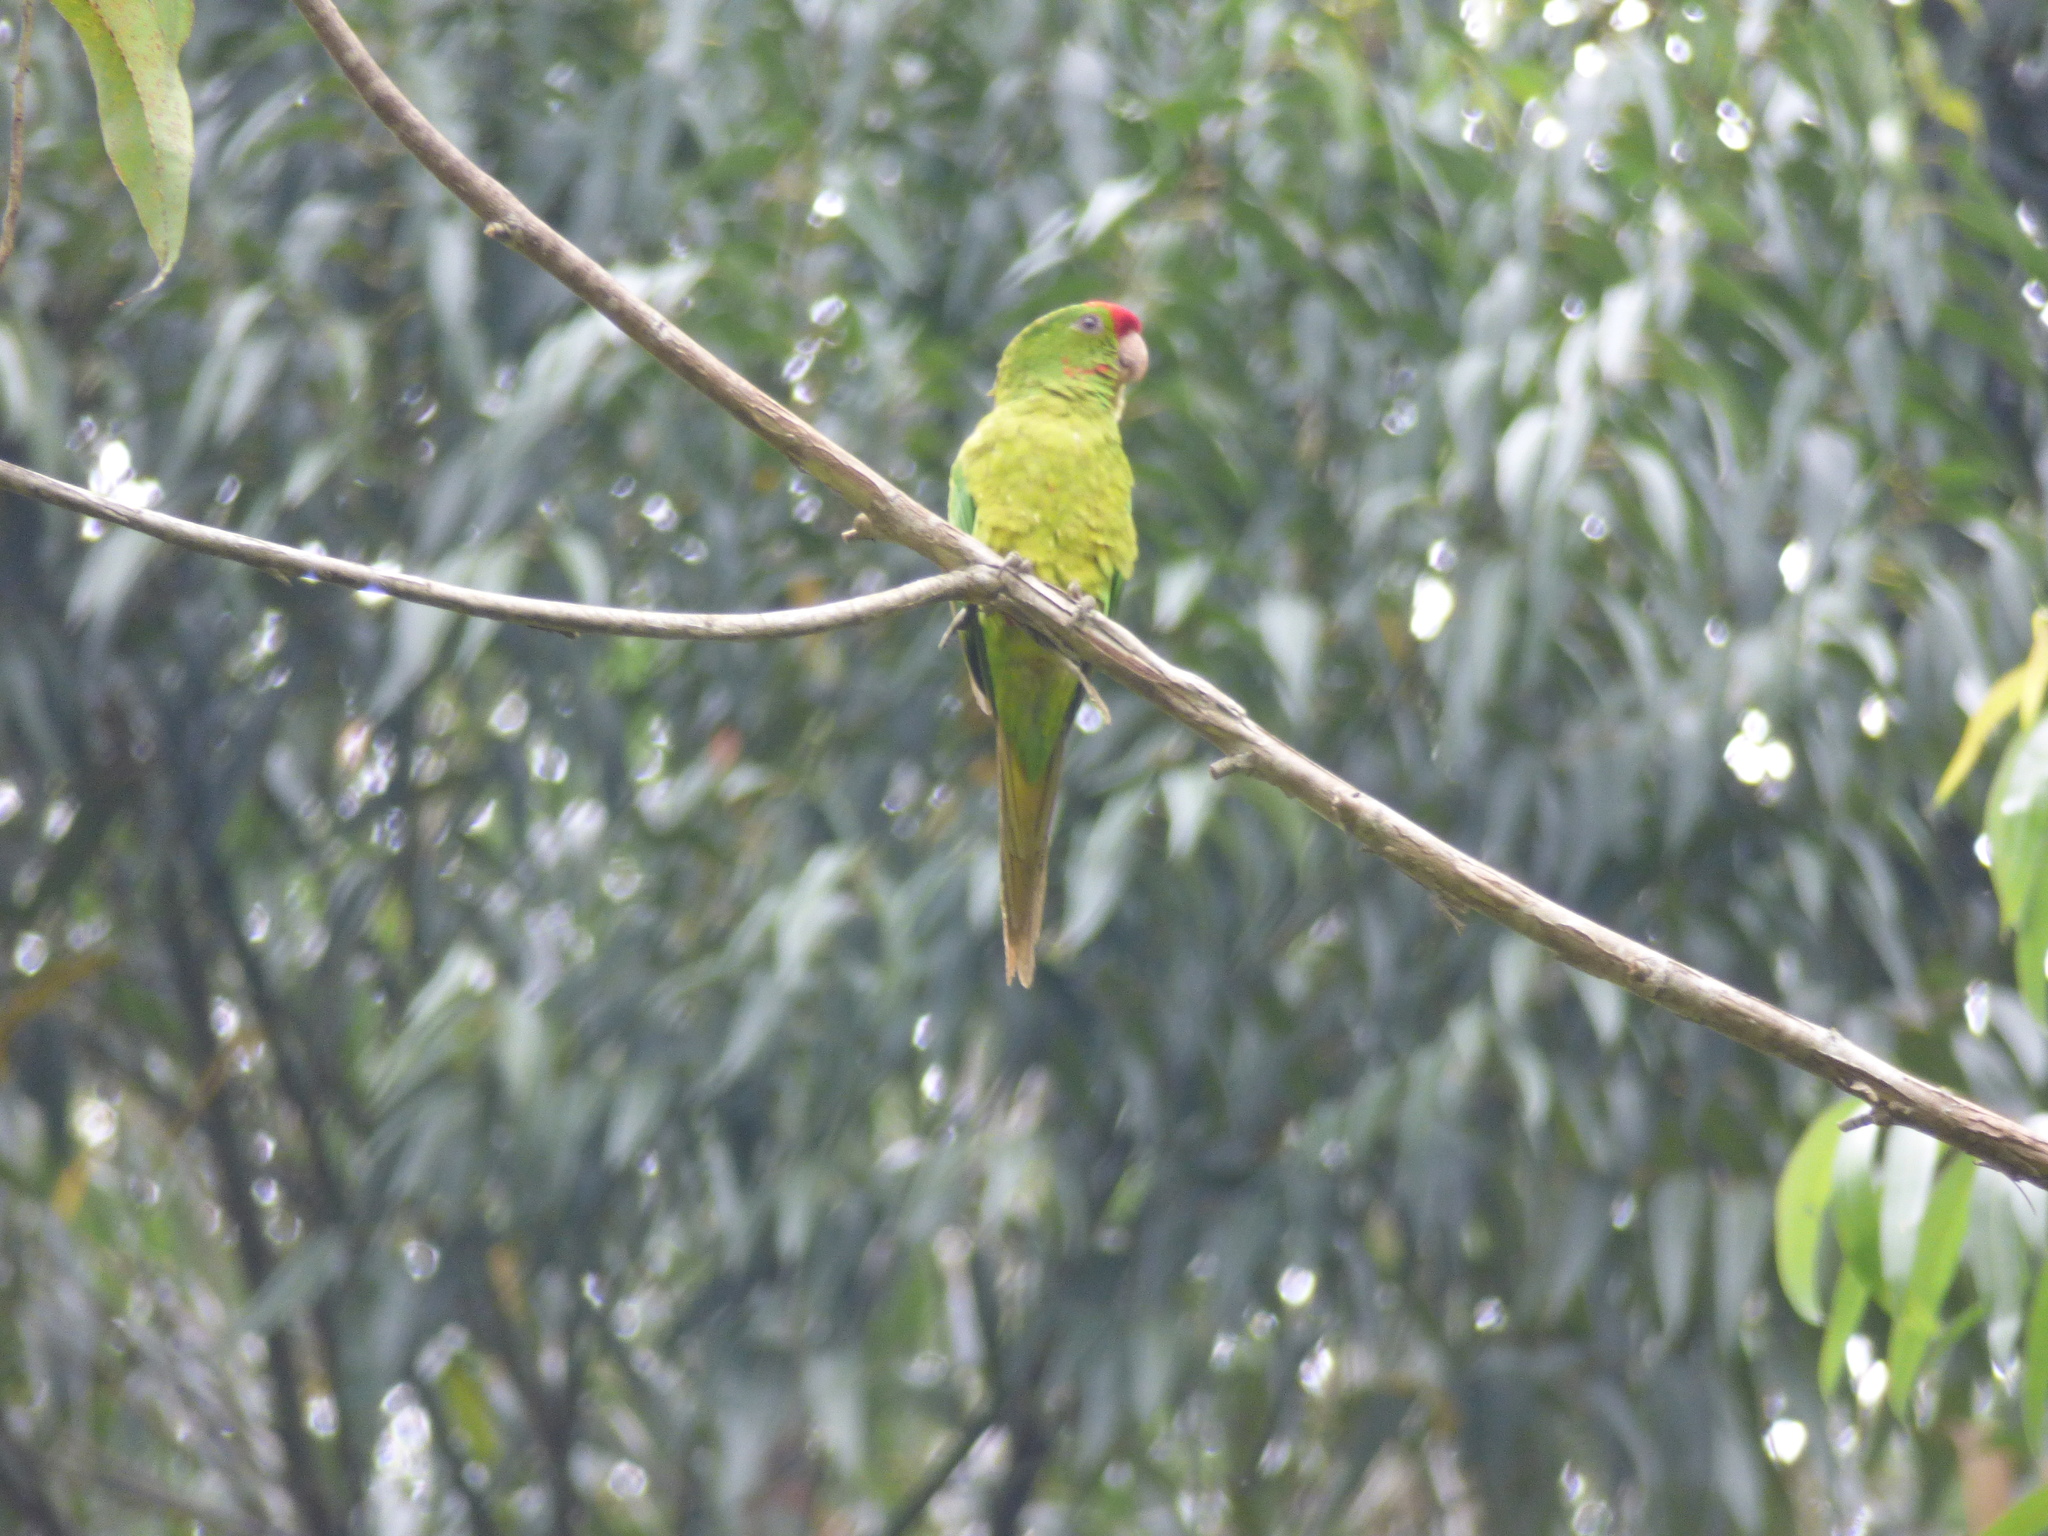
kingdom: Animalia
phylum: Chordata
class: Aves
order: Psittaciformes
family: Psittacidae
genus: Aratinga
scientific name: Aratinga wagleri
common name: Scarlet-fronted parakeet
